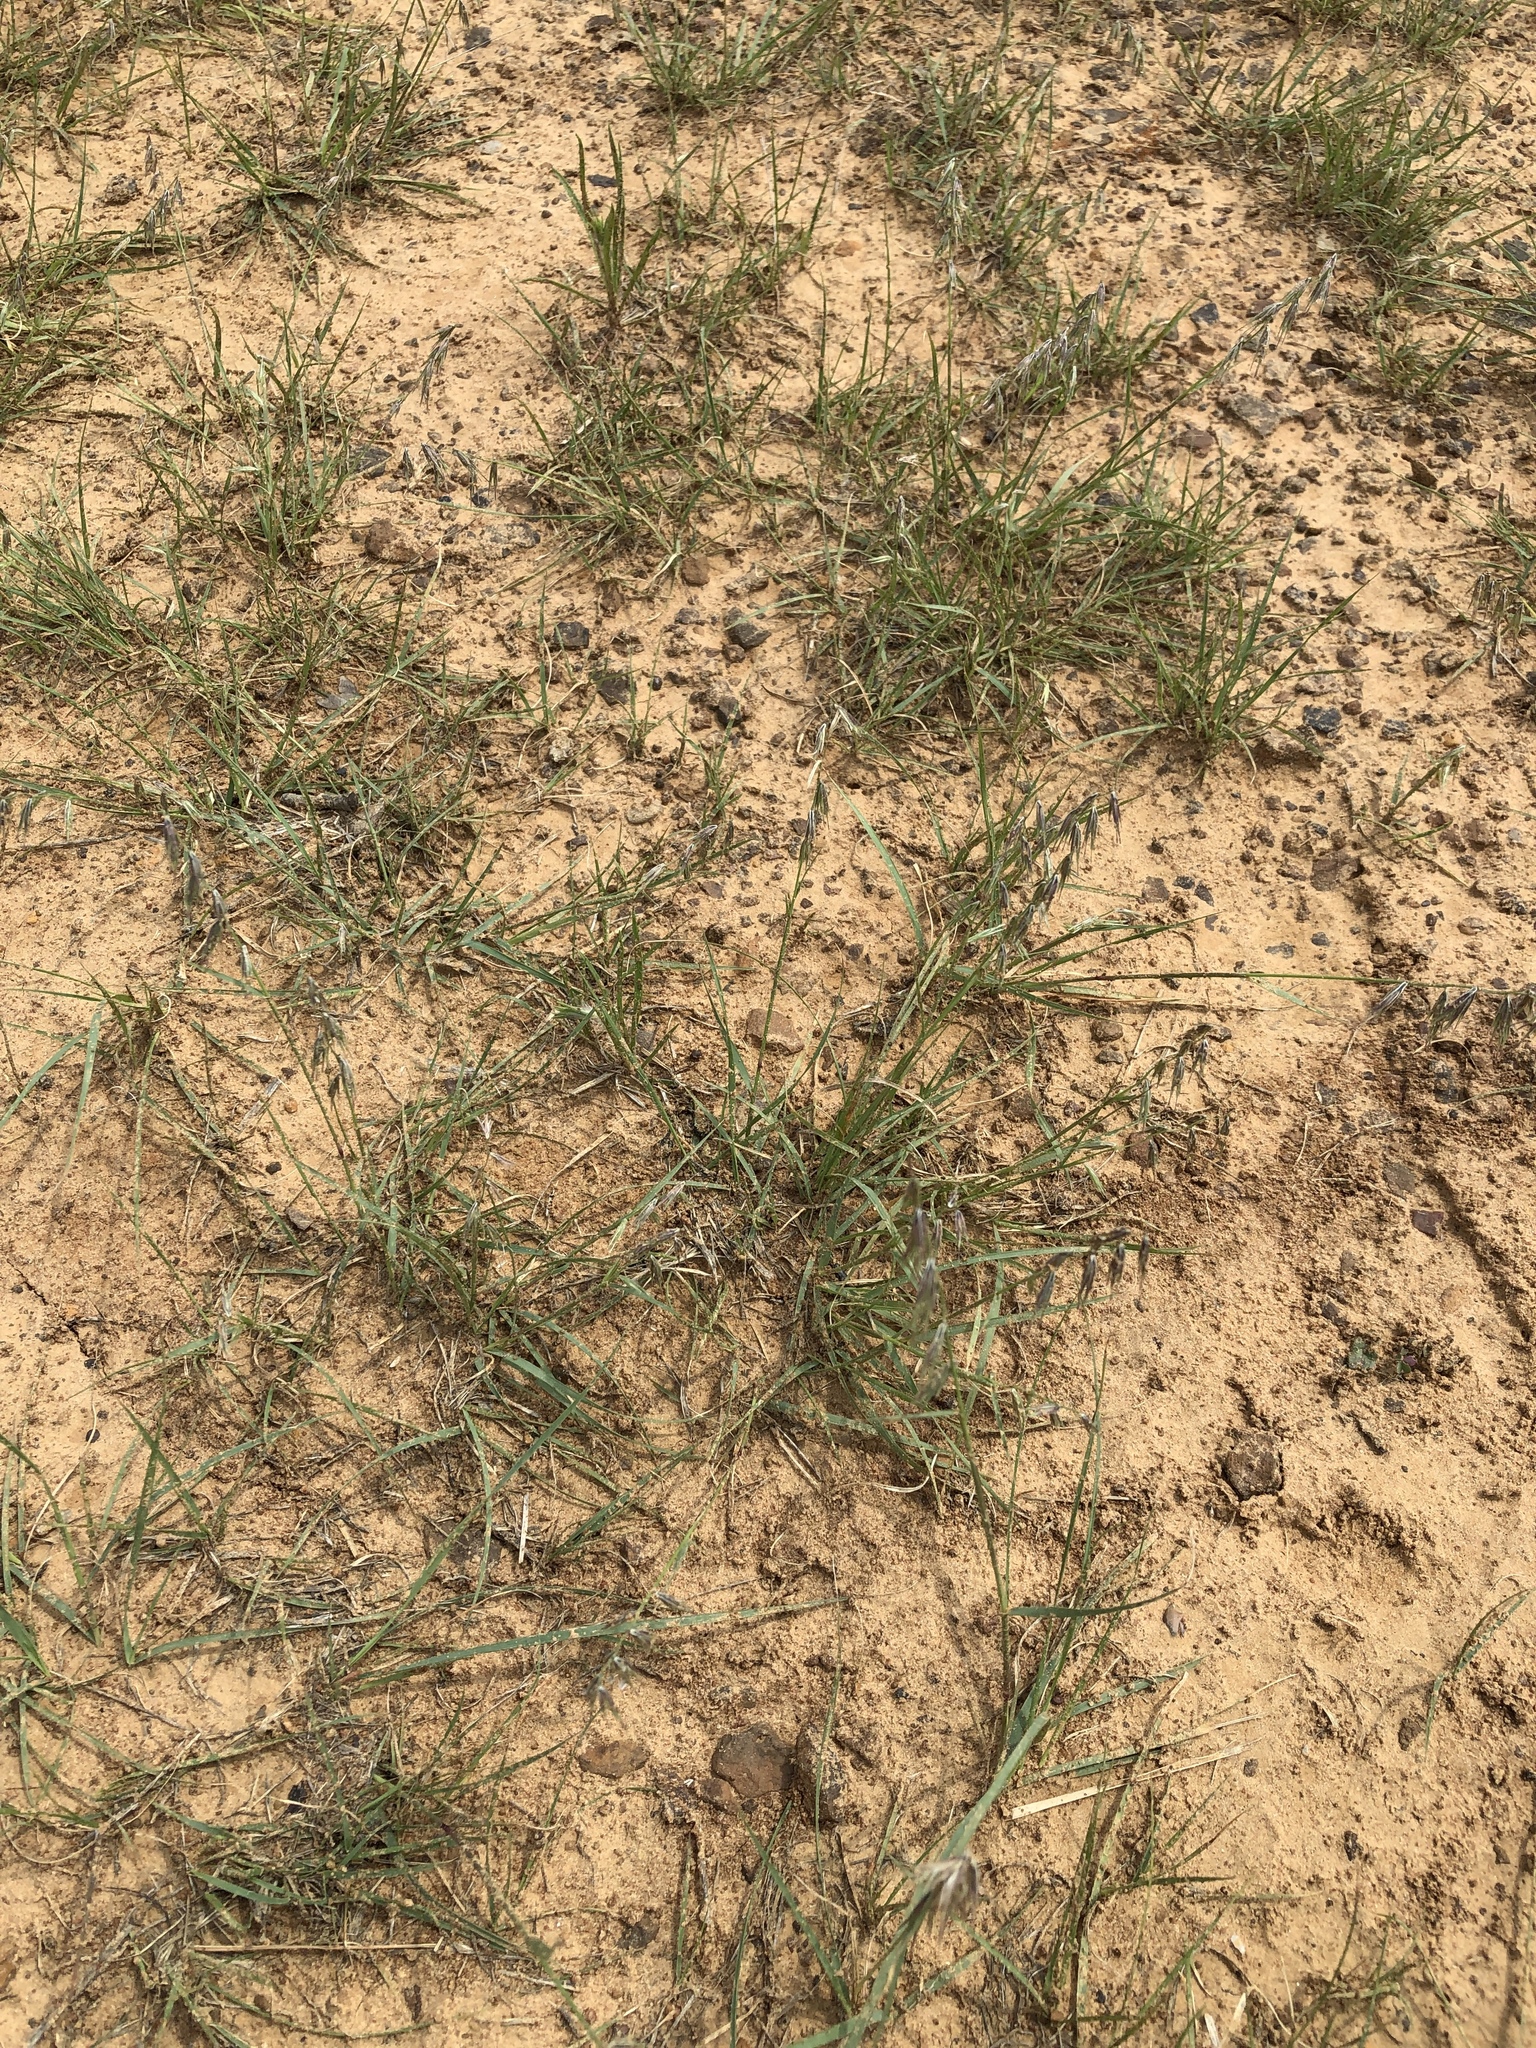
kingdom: Plantae
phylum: Tracheophyta
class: Liliopsida
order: Poales
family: Poaceae
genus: Bouteloua
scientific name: Bouteloua rigidiseta
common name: Texas grama
